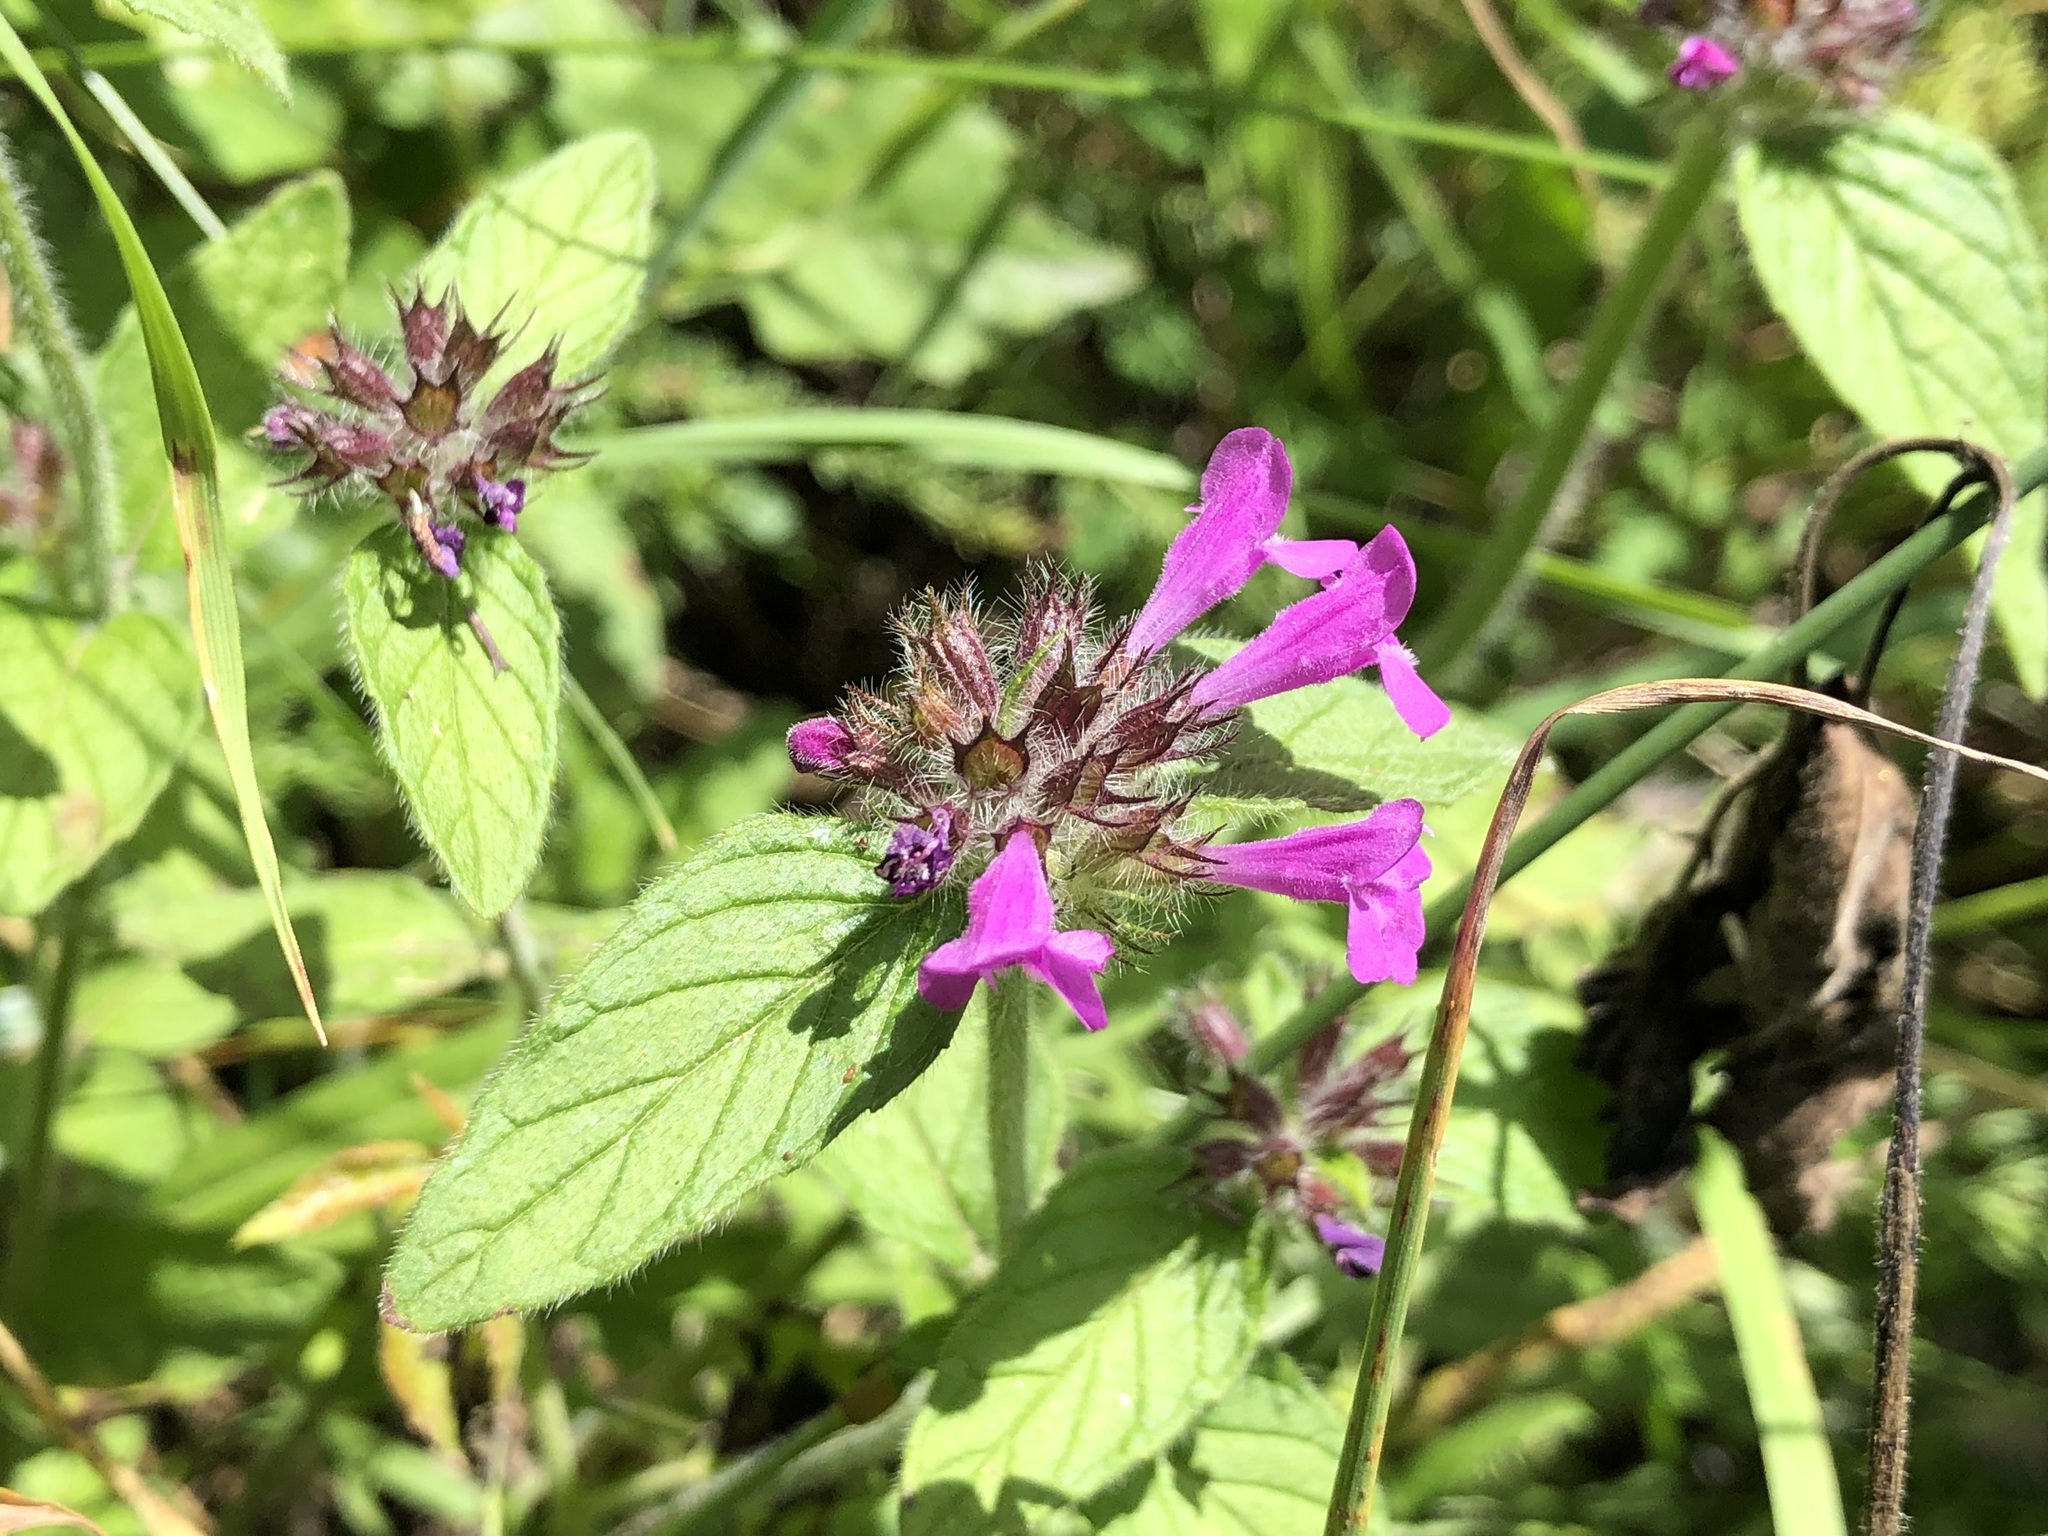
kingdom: Plantae
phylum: Tracheophyta
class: Magnoliopsida
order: Lamiales
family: Lamiaceae
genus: Clinopodium
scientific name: Clinopodium vulgare
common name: Wild basil
